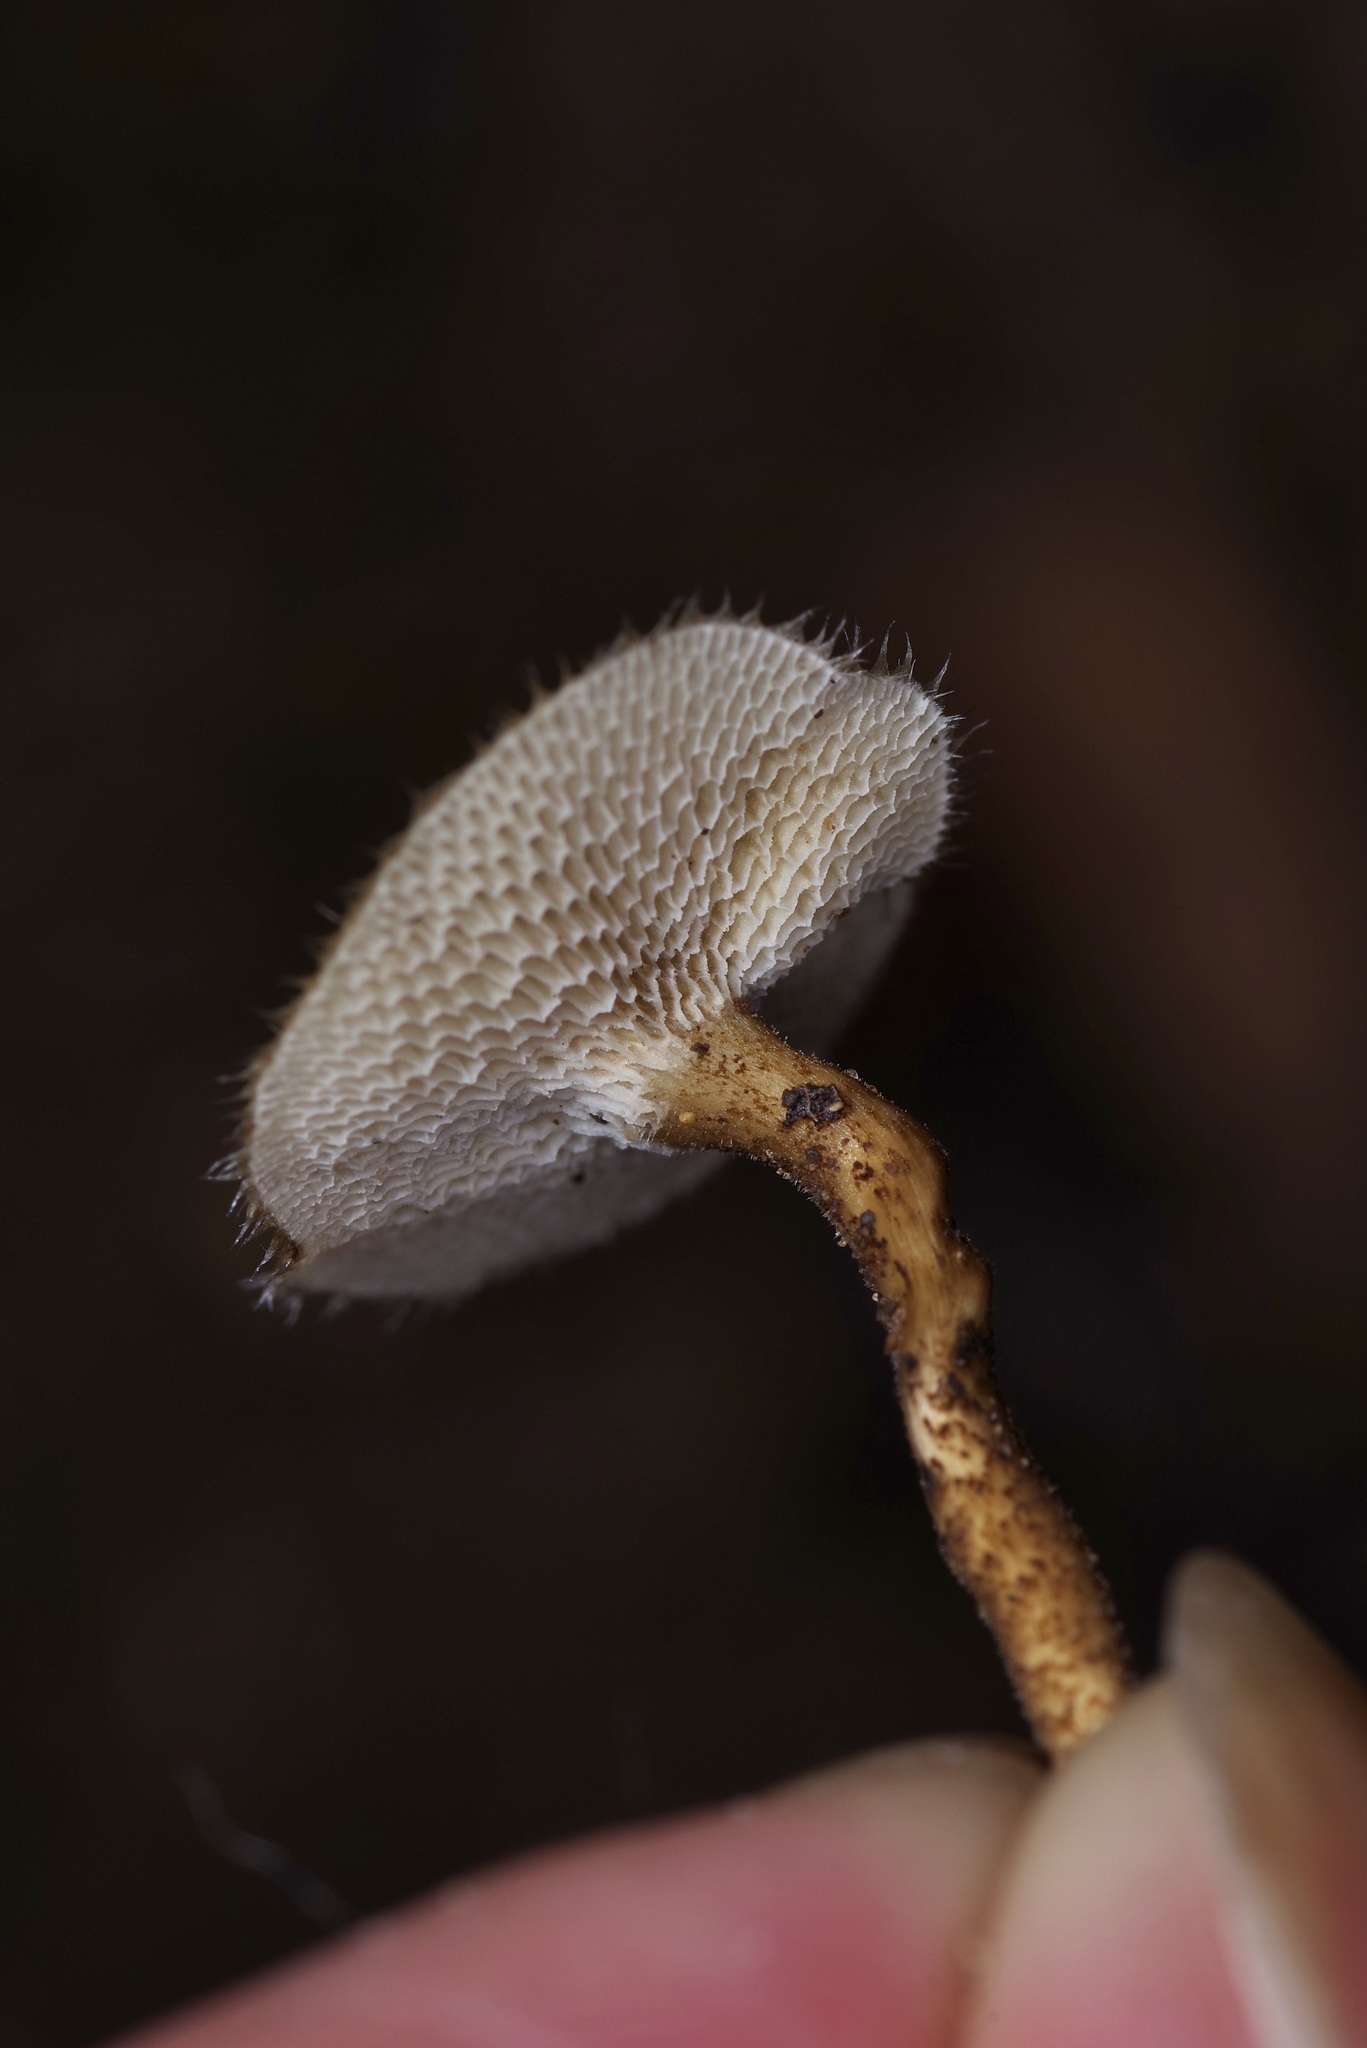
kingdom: Fungi
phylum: Basidiomycota
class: Agaricomycetes
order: Polyporales
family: Polyporaceae
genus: Lentinus
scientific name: Lentinus arcularius
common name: Spring polypore
